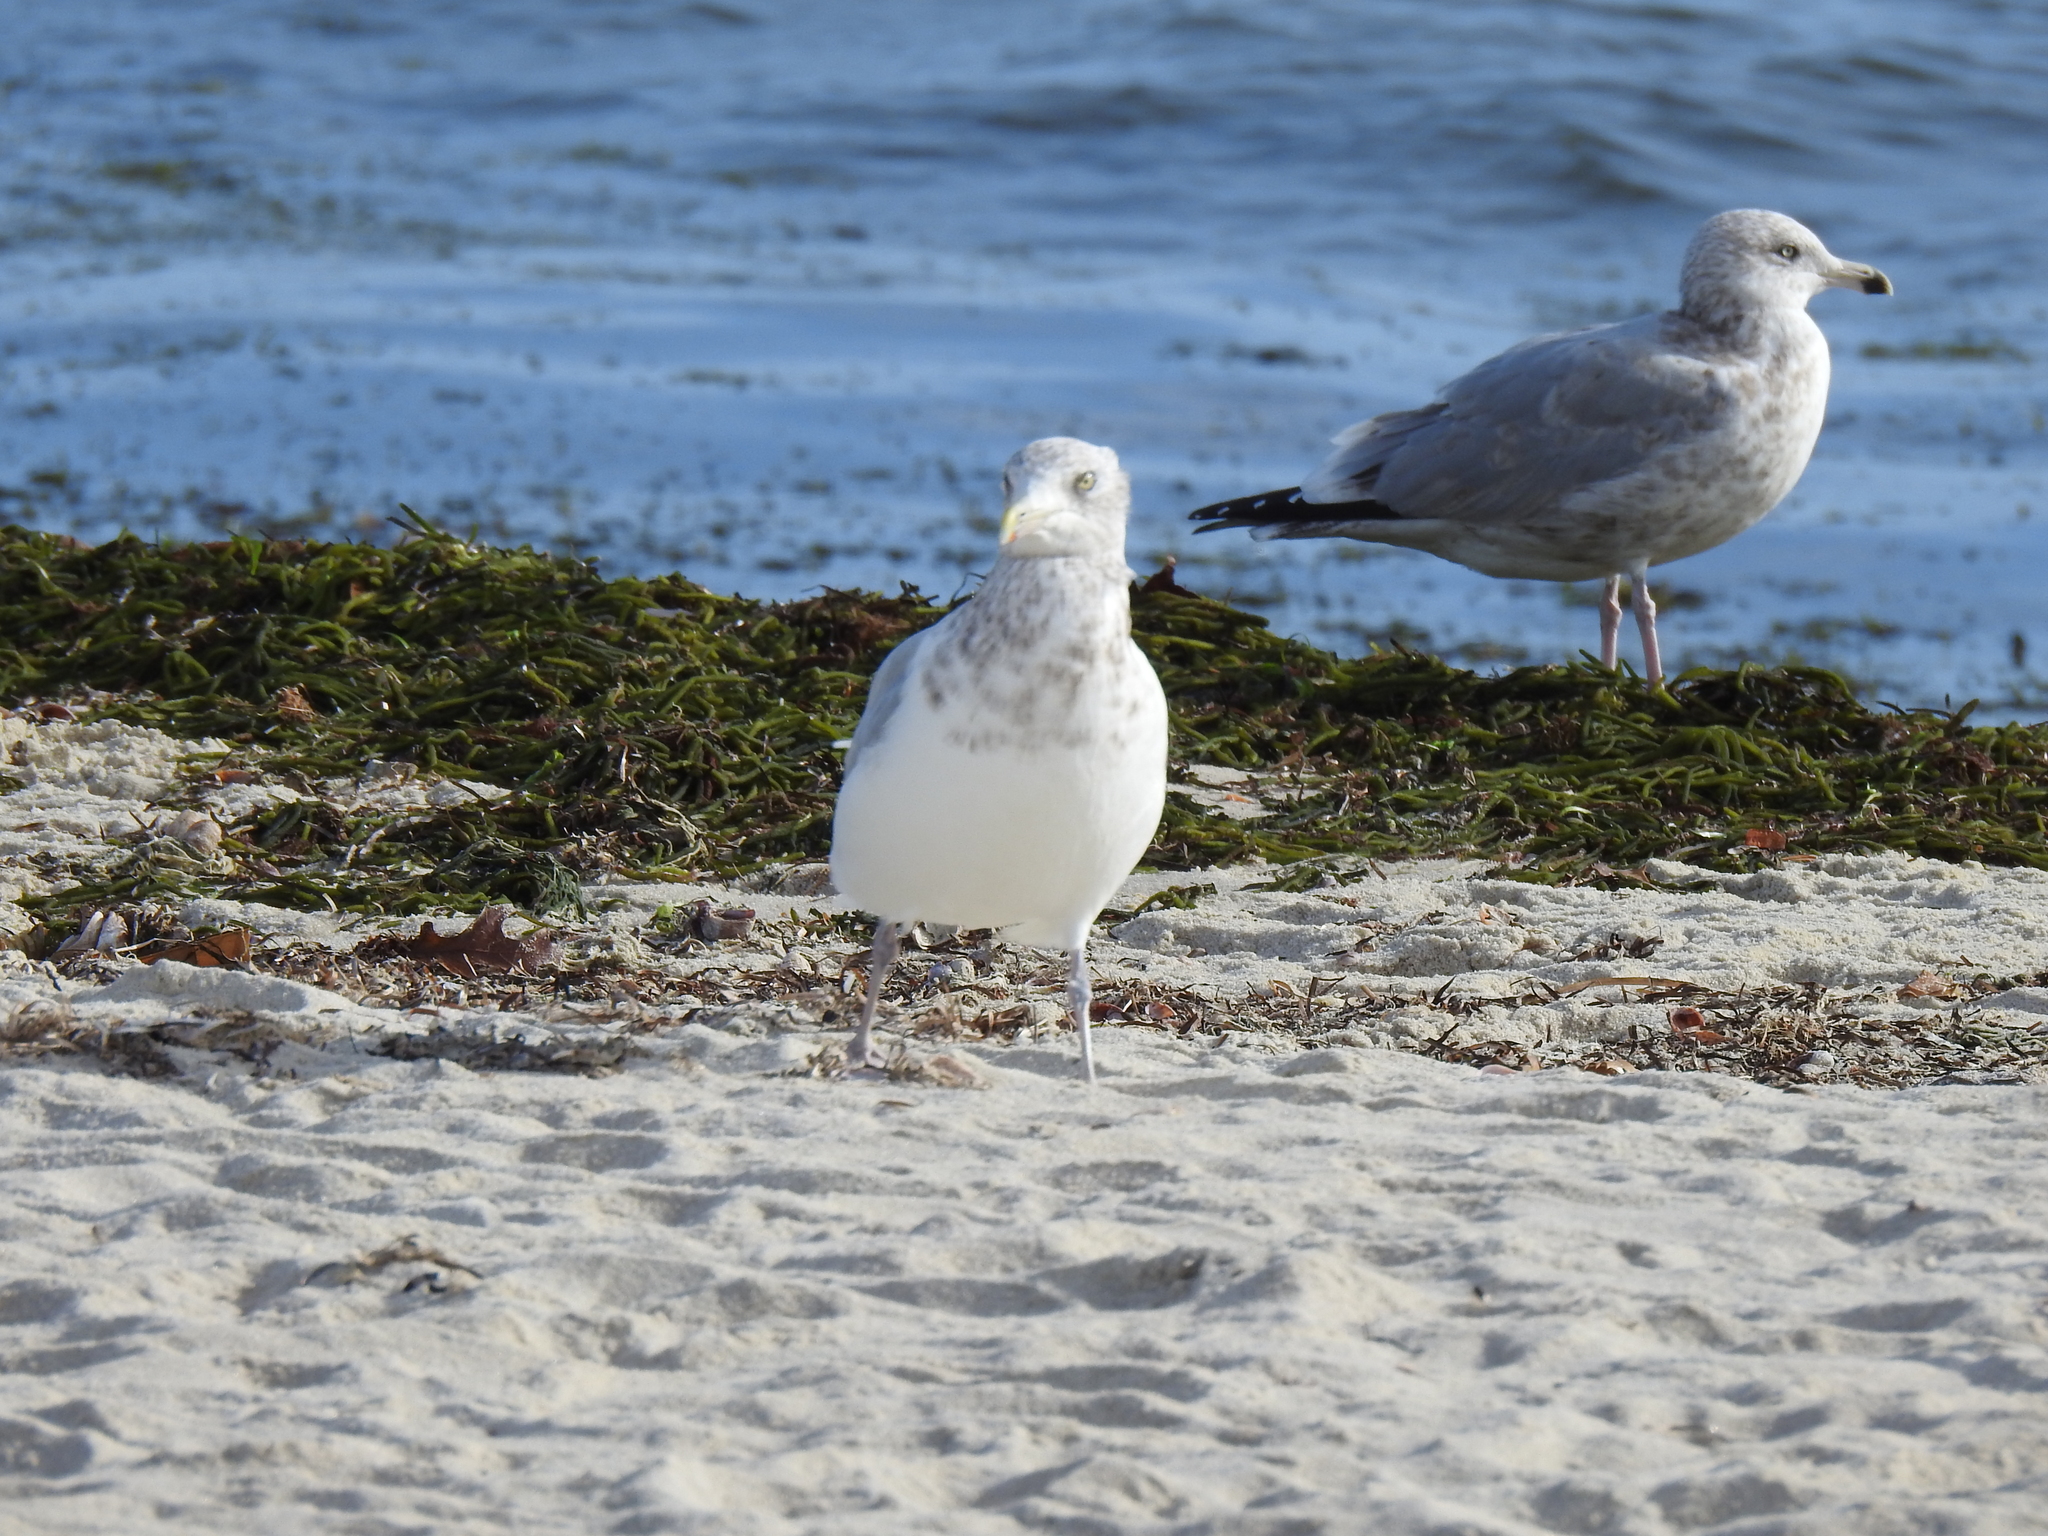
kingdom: Animalia
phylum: Chordata
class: Aves
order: Charadriiformes
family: Laridae
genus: Larus
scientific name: Larus argentatus
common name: Herring gull
